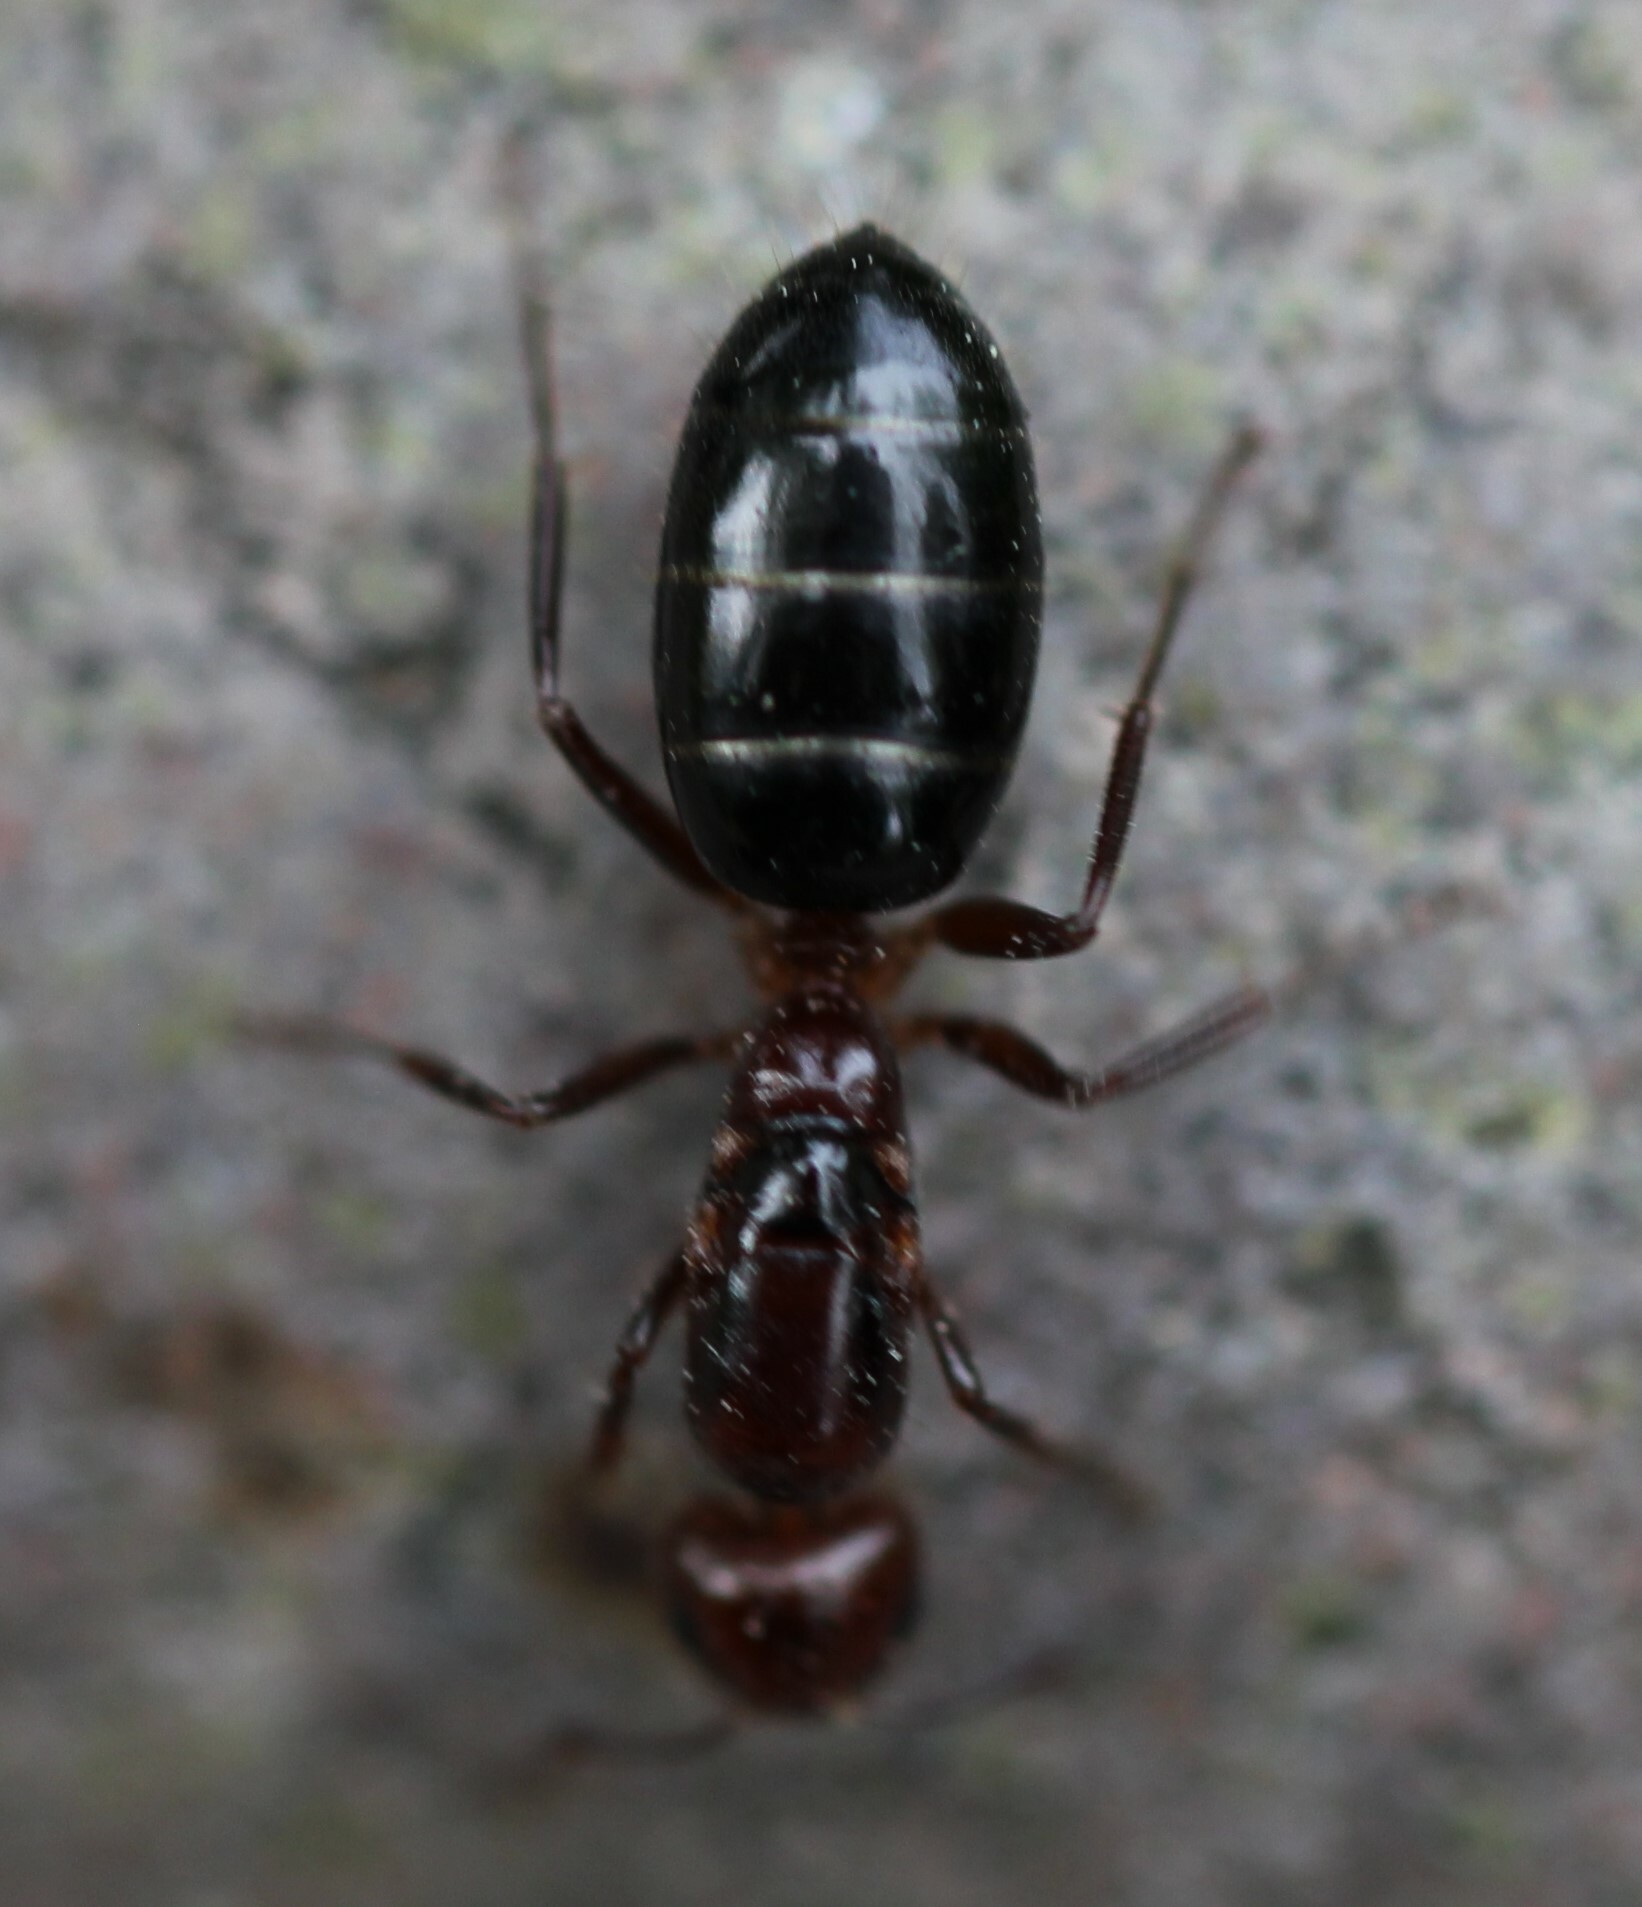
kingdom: Animalia
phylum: Arthropoda
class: Insecta
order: Hymenoptera
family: Formicidae
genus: Camponotus
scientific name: Camponotus lameerei
